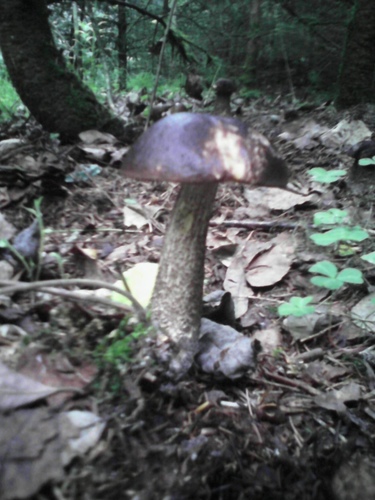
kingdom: Fungi
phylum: Basidiomycota
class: Agaricomycetes
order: Boletales
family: Boletaceae
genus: Leccinum
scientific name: Leccinum
